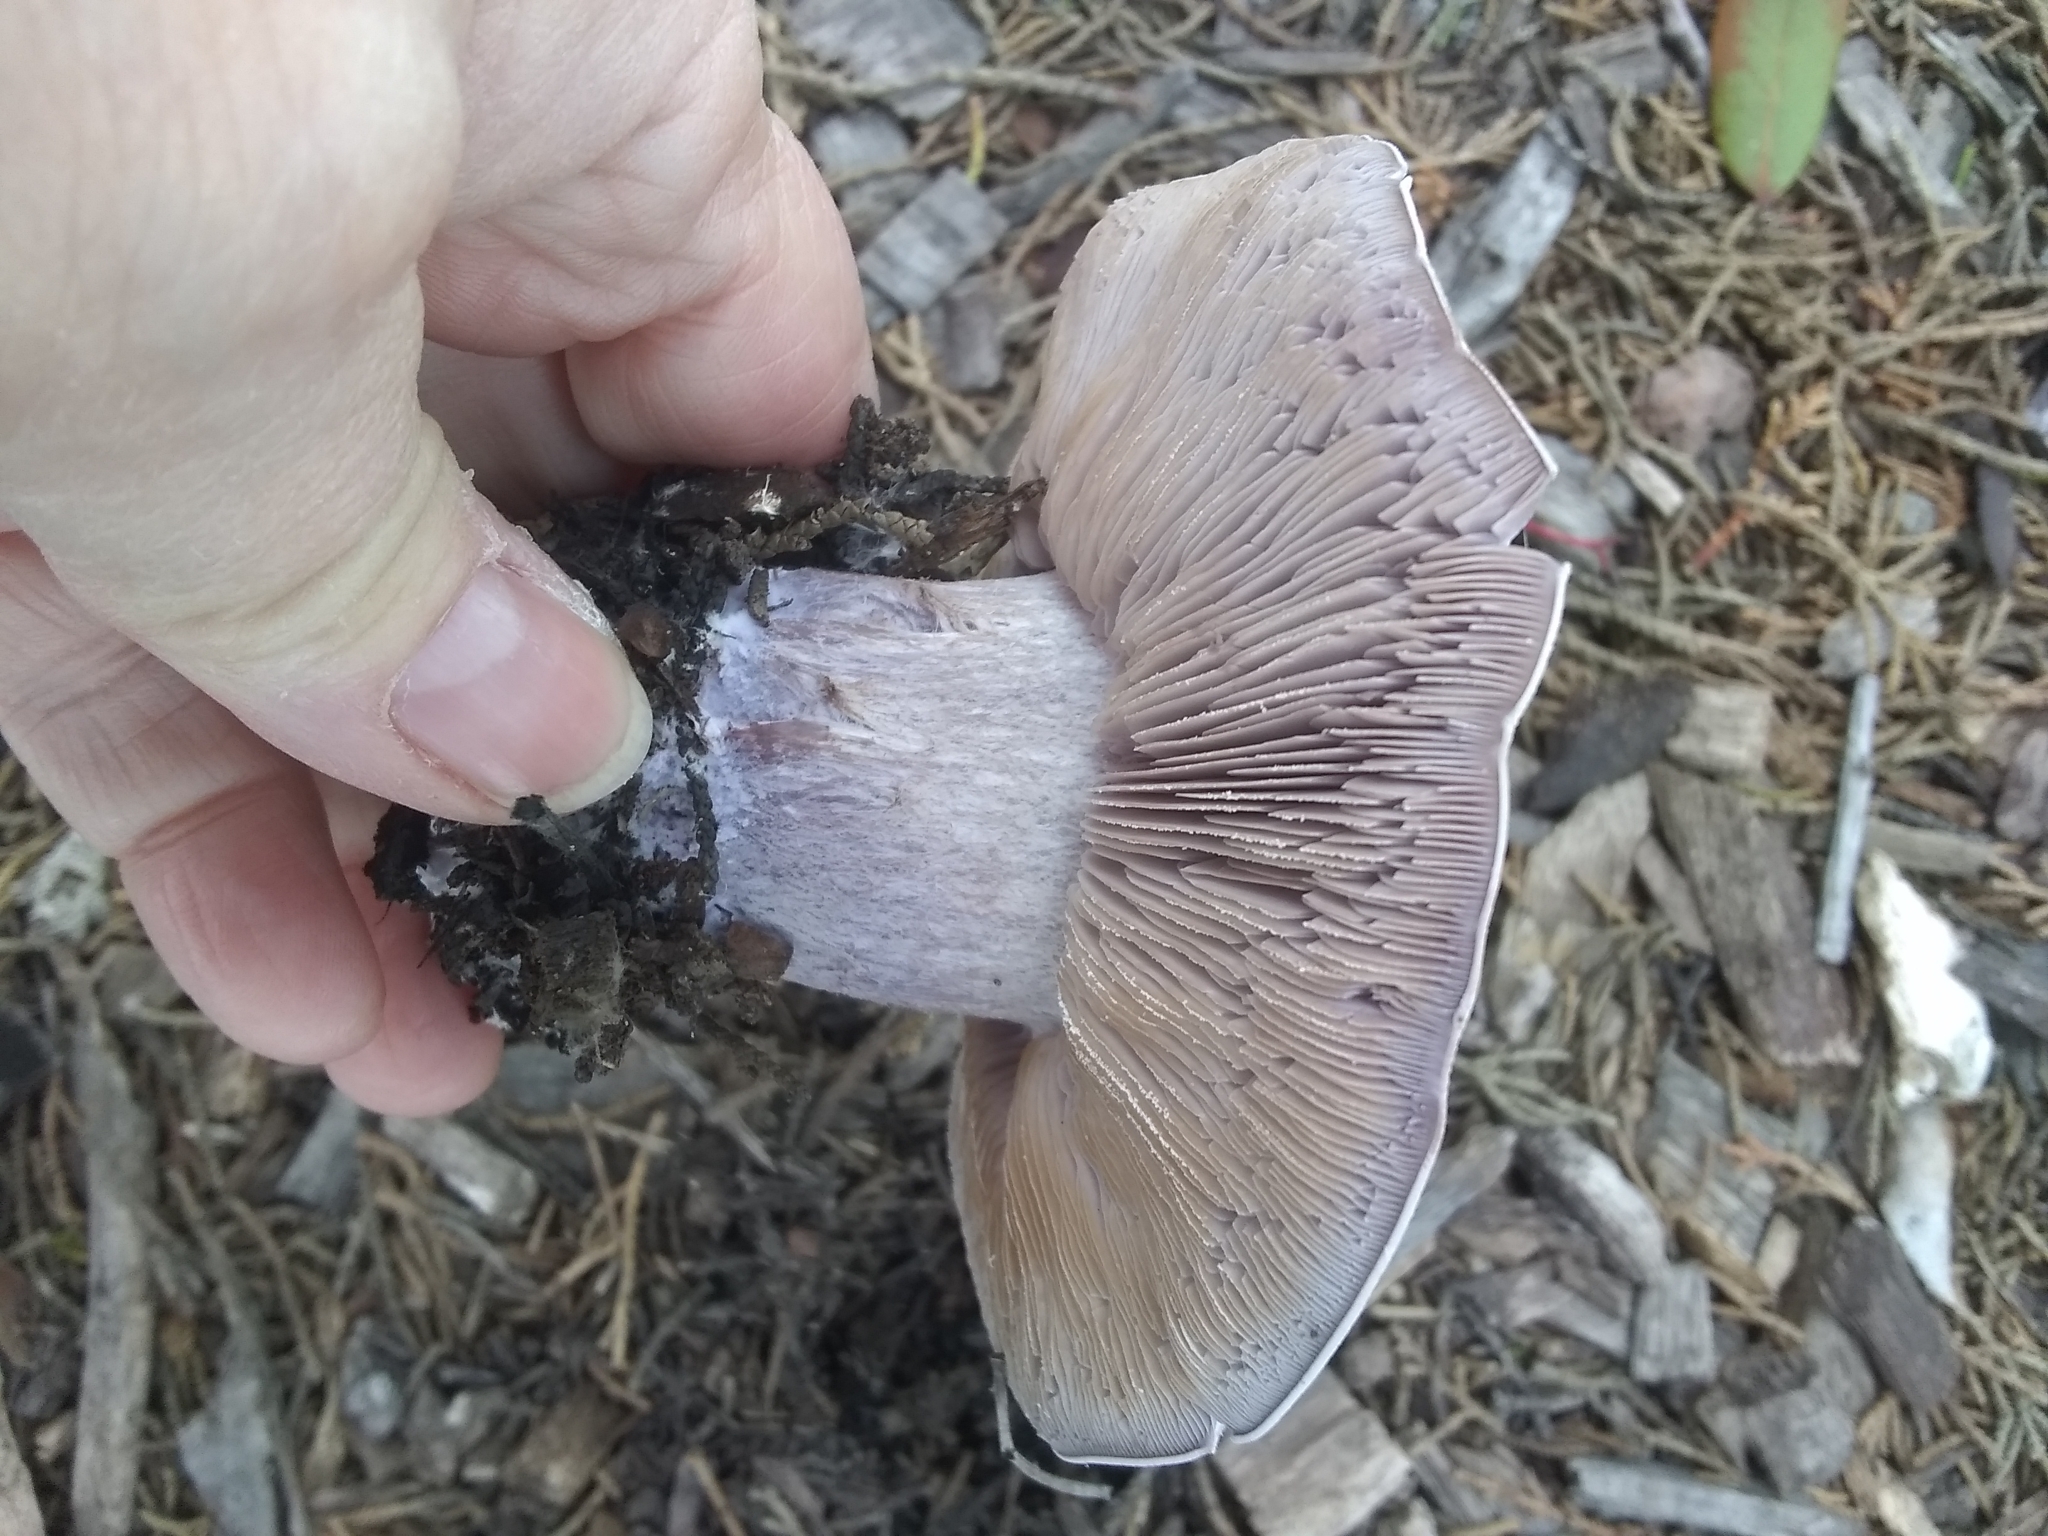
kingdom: Fungi
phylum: Basidiomycota
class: Agaricomycetes
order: Agaricales
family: Tricholomataceae
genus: Collybia
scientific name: Collybia
